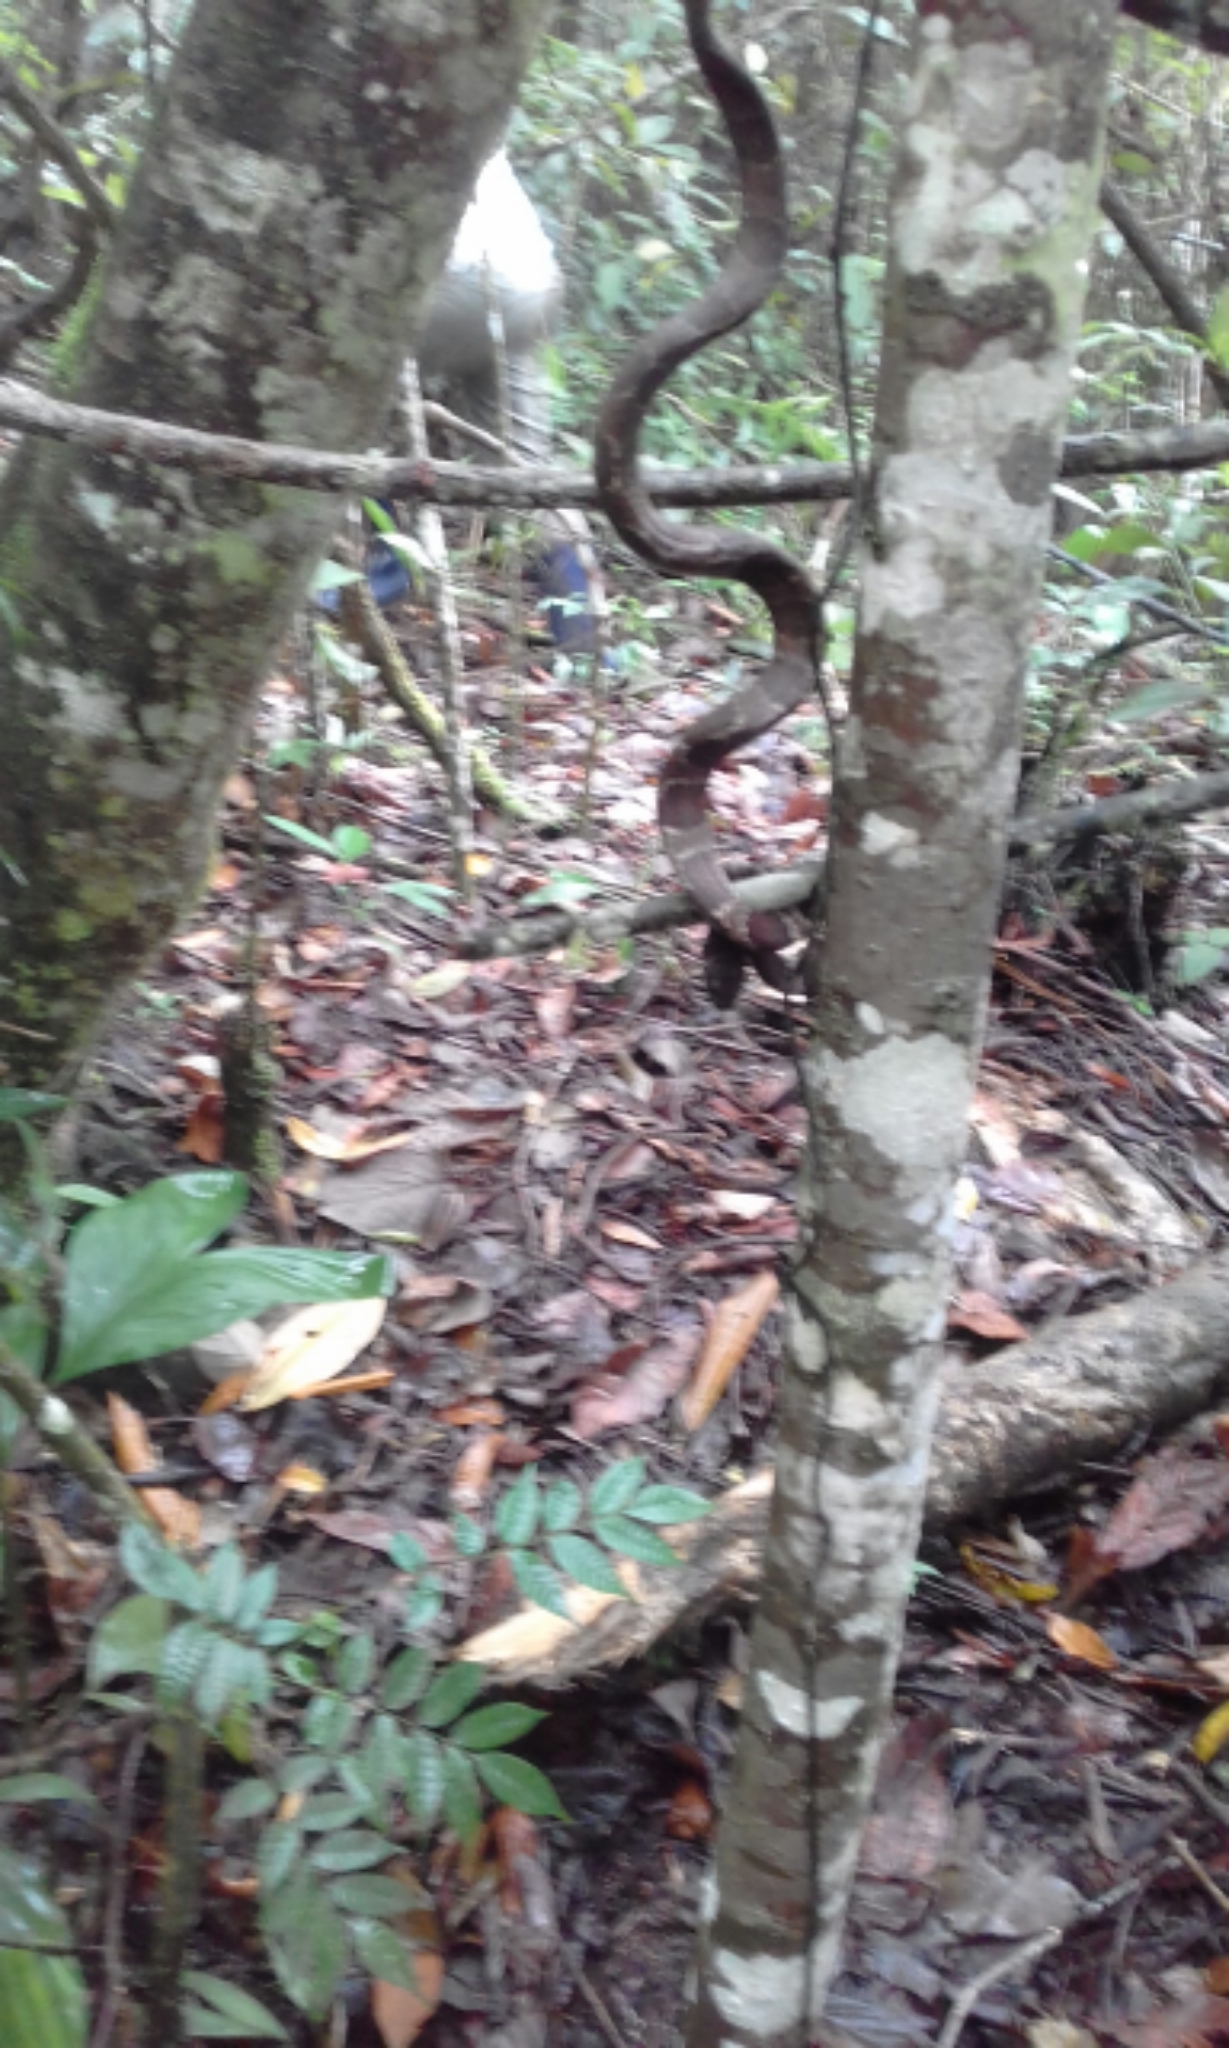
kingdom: Animalia
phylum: Chordata
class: Squamata
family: Colubridae
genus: Dipsas
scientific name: Dipsas sanctijoannis
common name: Tropical snail-eater
